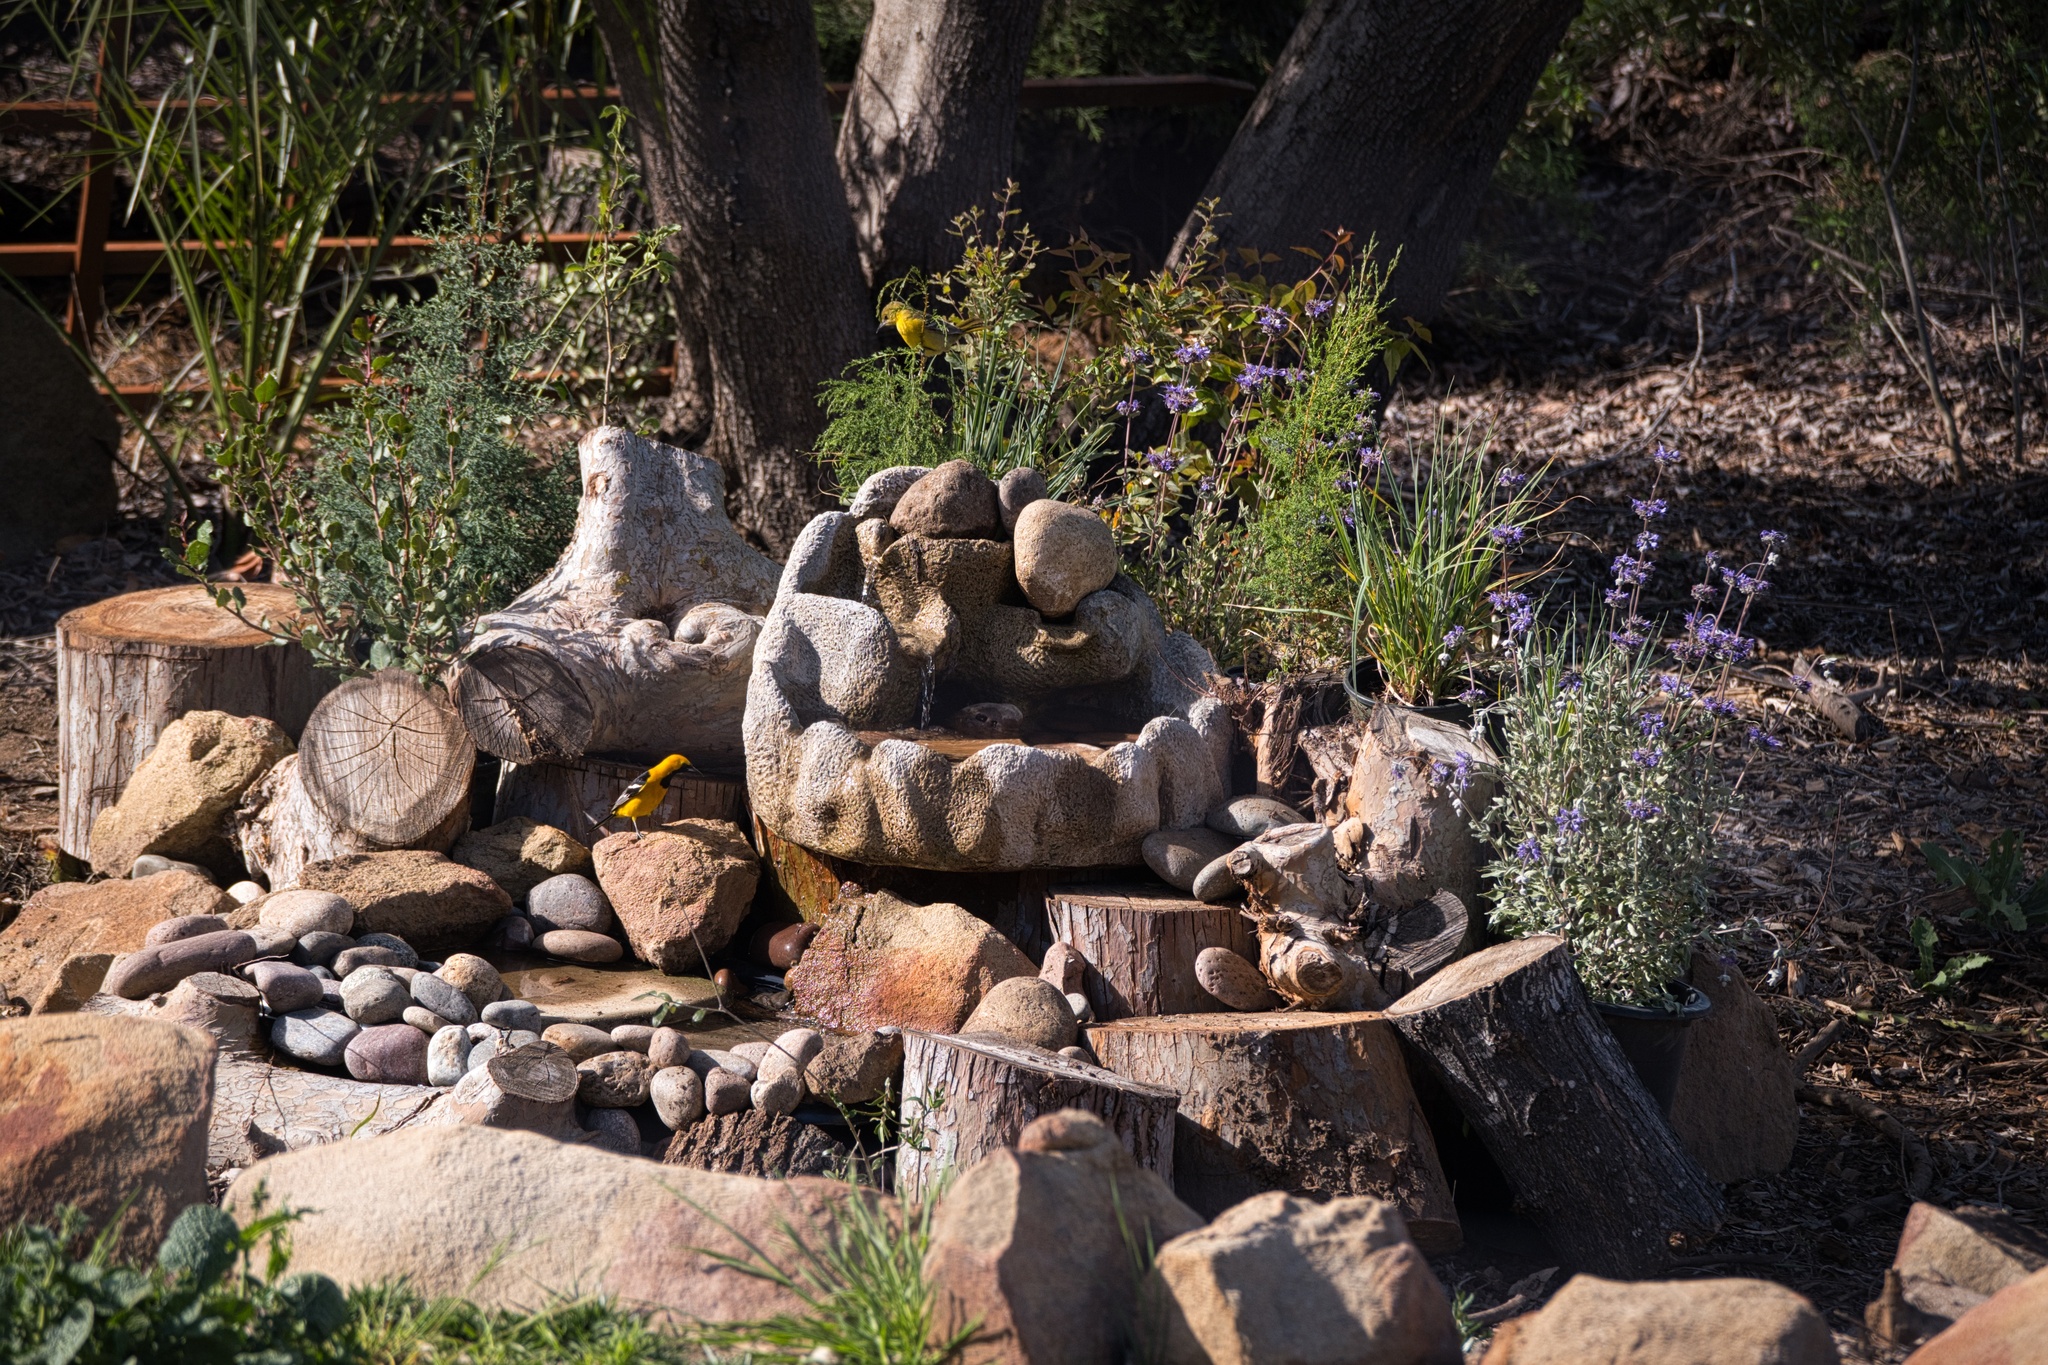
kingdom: Animalia
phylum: Chordata
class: Aves
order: Passeriformes
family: Icteridae
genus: Icterus
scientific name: Icterus cucullatus
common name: Hooded oriole
